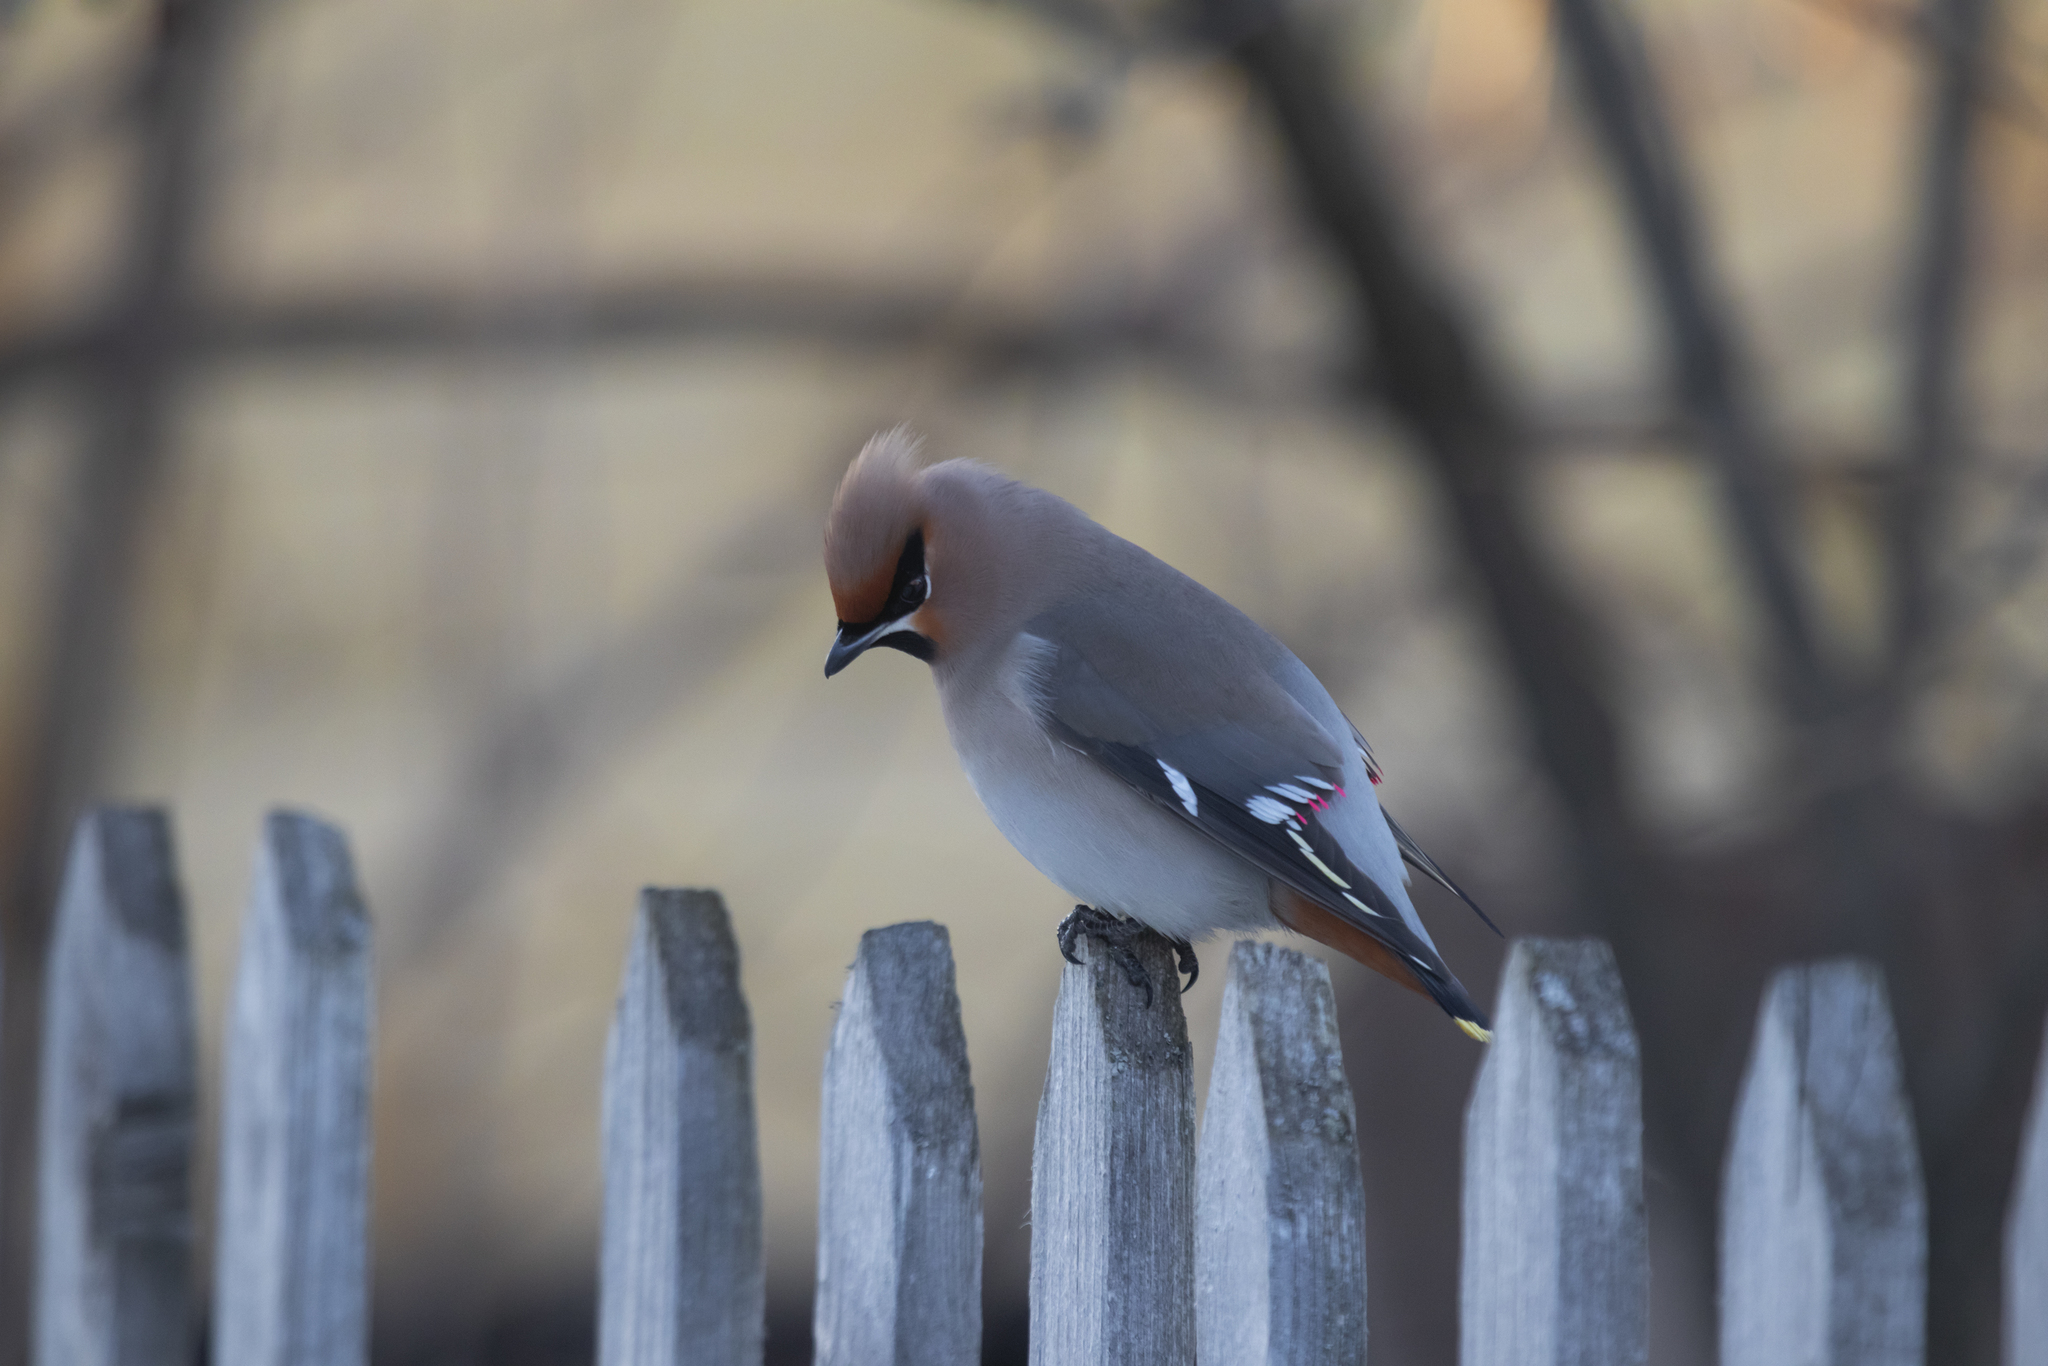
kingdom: Animalia
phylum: Chordata
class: Aves
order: Passeriformes
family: Bombycillidae
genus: Bombycilla
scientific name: Bombycilla garrulus
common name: Bohemian waxwing
